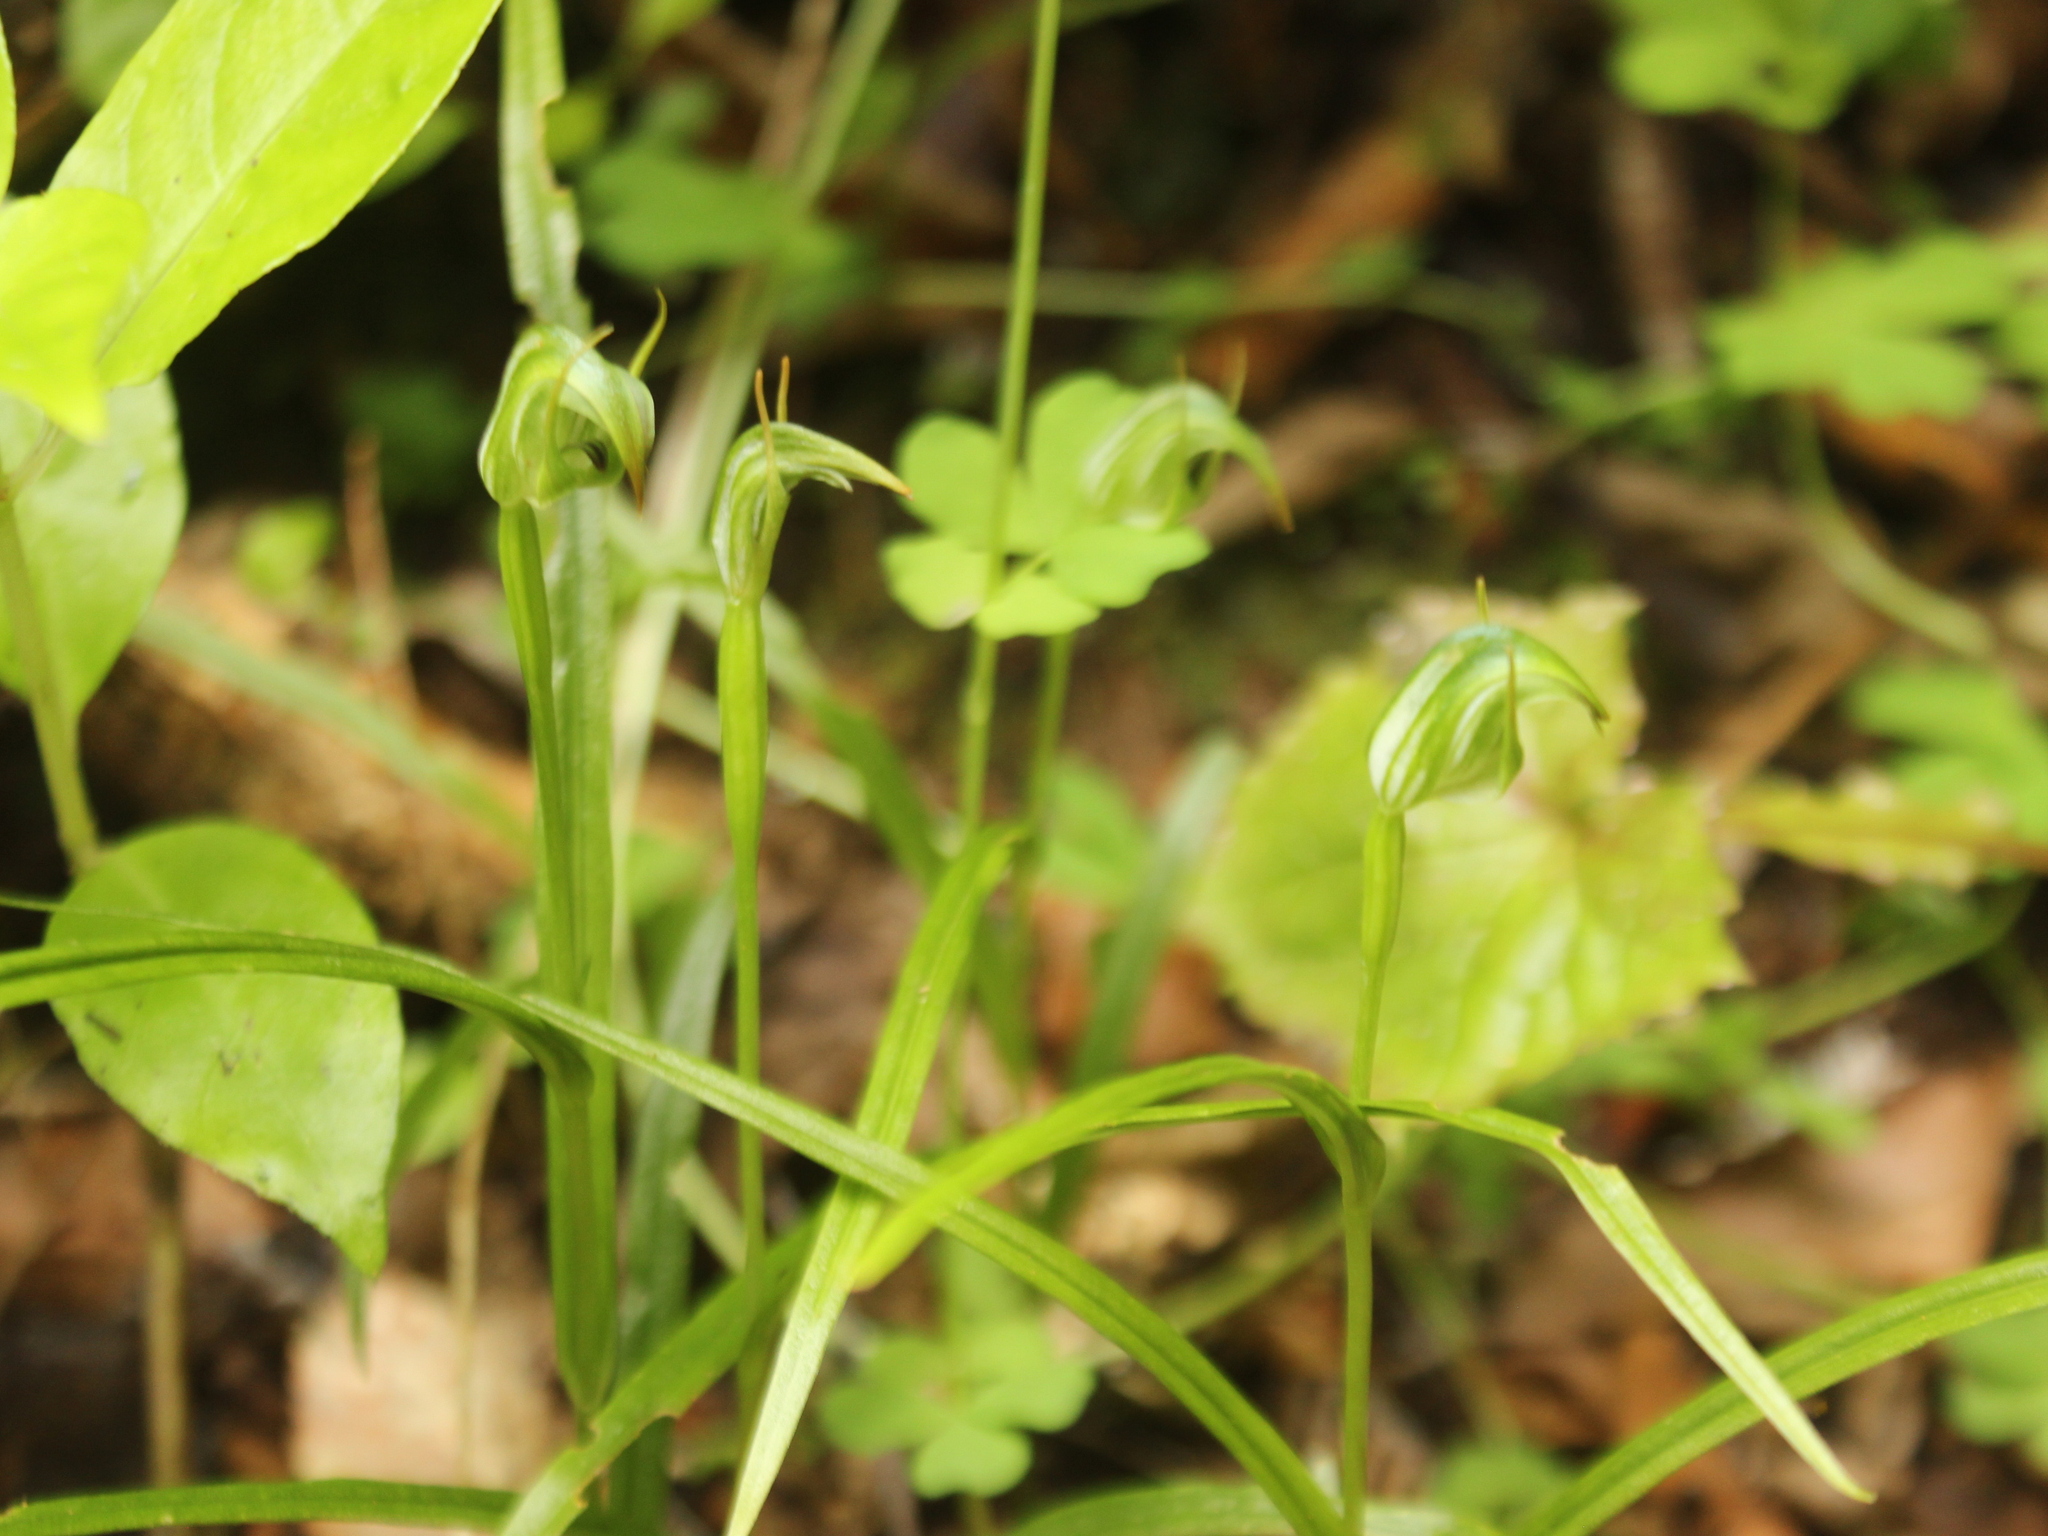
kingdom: Plantae
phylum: Tracheophyta
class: Liliopsida
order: Asparagales
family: Orchidaceae
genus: Pterostylis
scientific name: Pterostylis graminea
